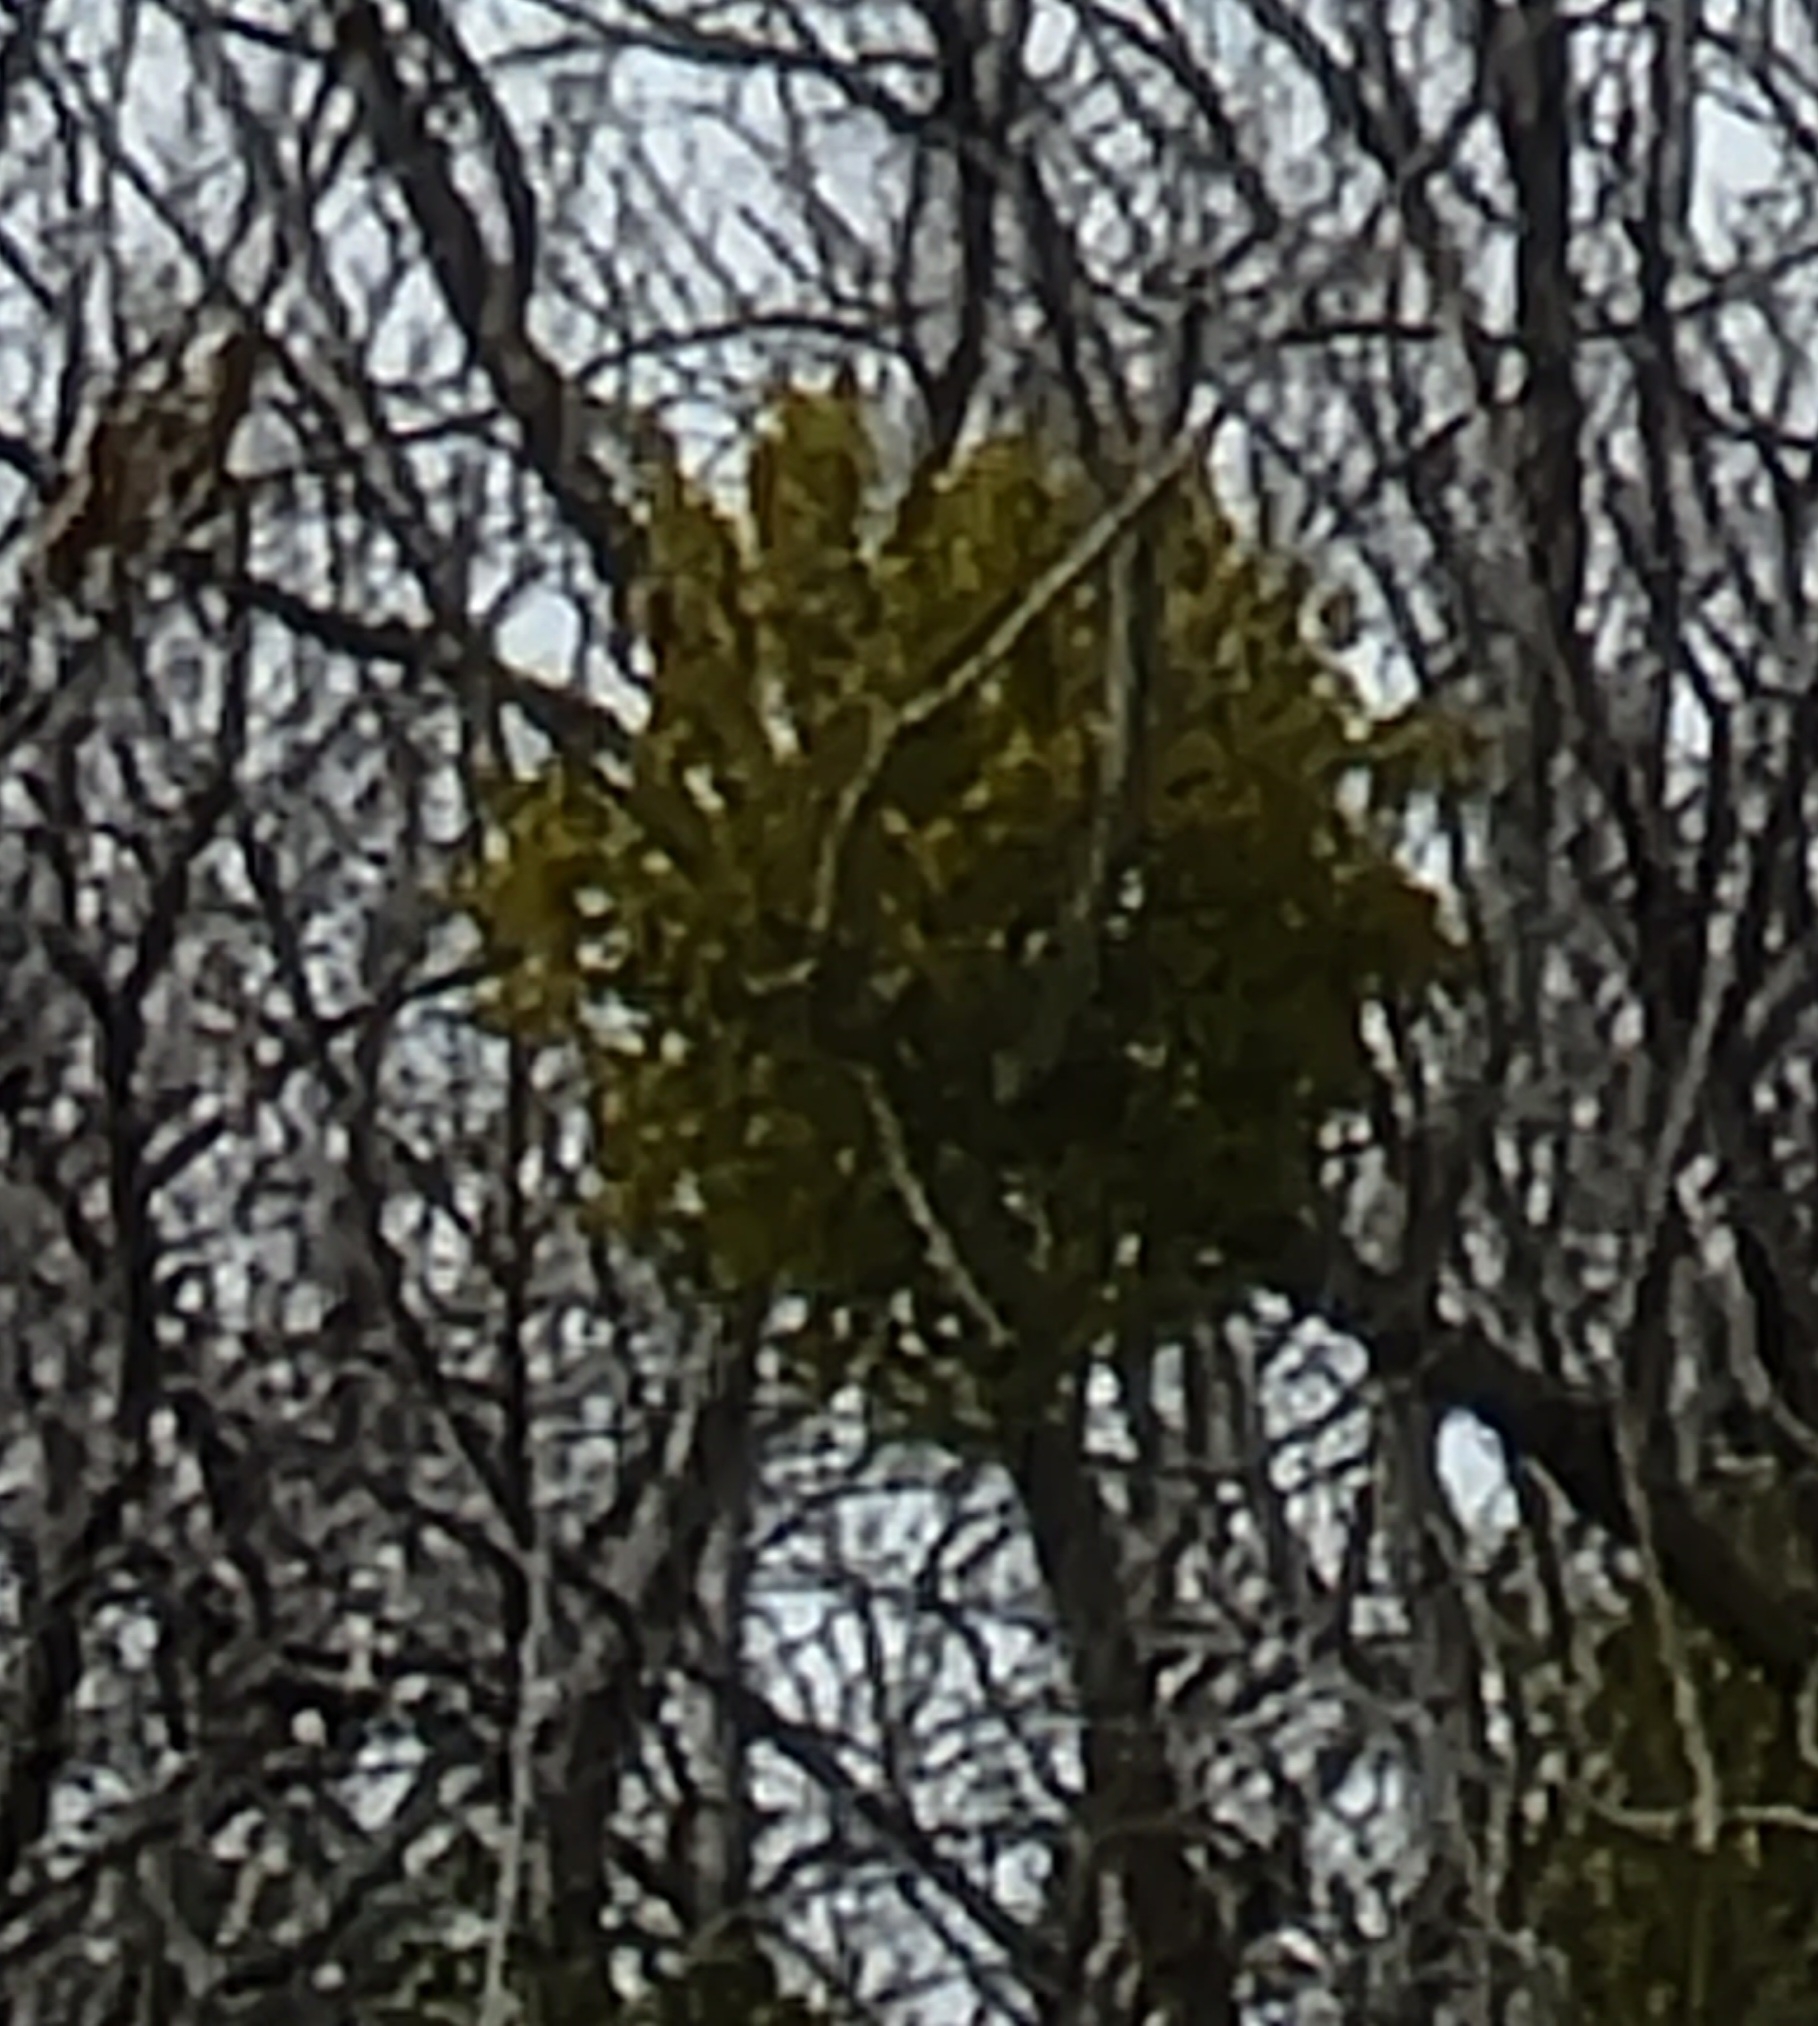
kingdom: Plantae
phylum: Tracheophyta
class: Magnoliopsida
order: Santalales
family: Viscaceae
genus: Phoradendron
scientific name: Phoradendron leucarpum
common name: Pacific mistletoe
